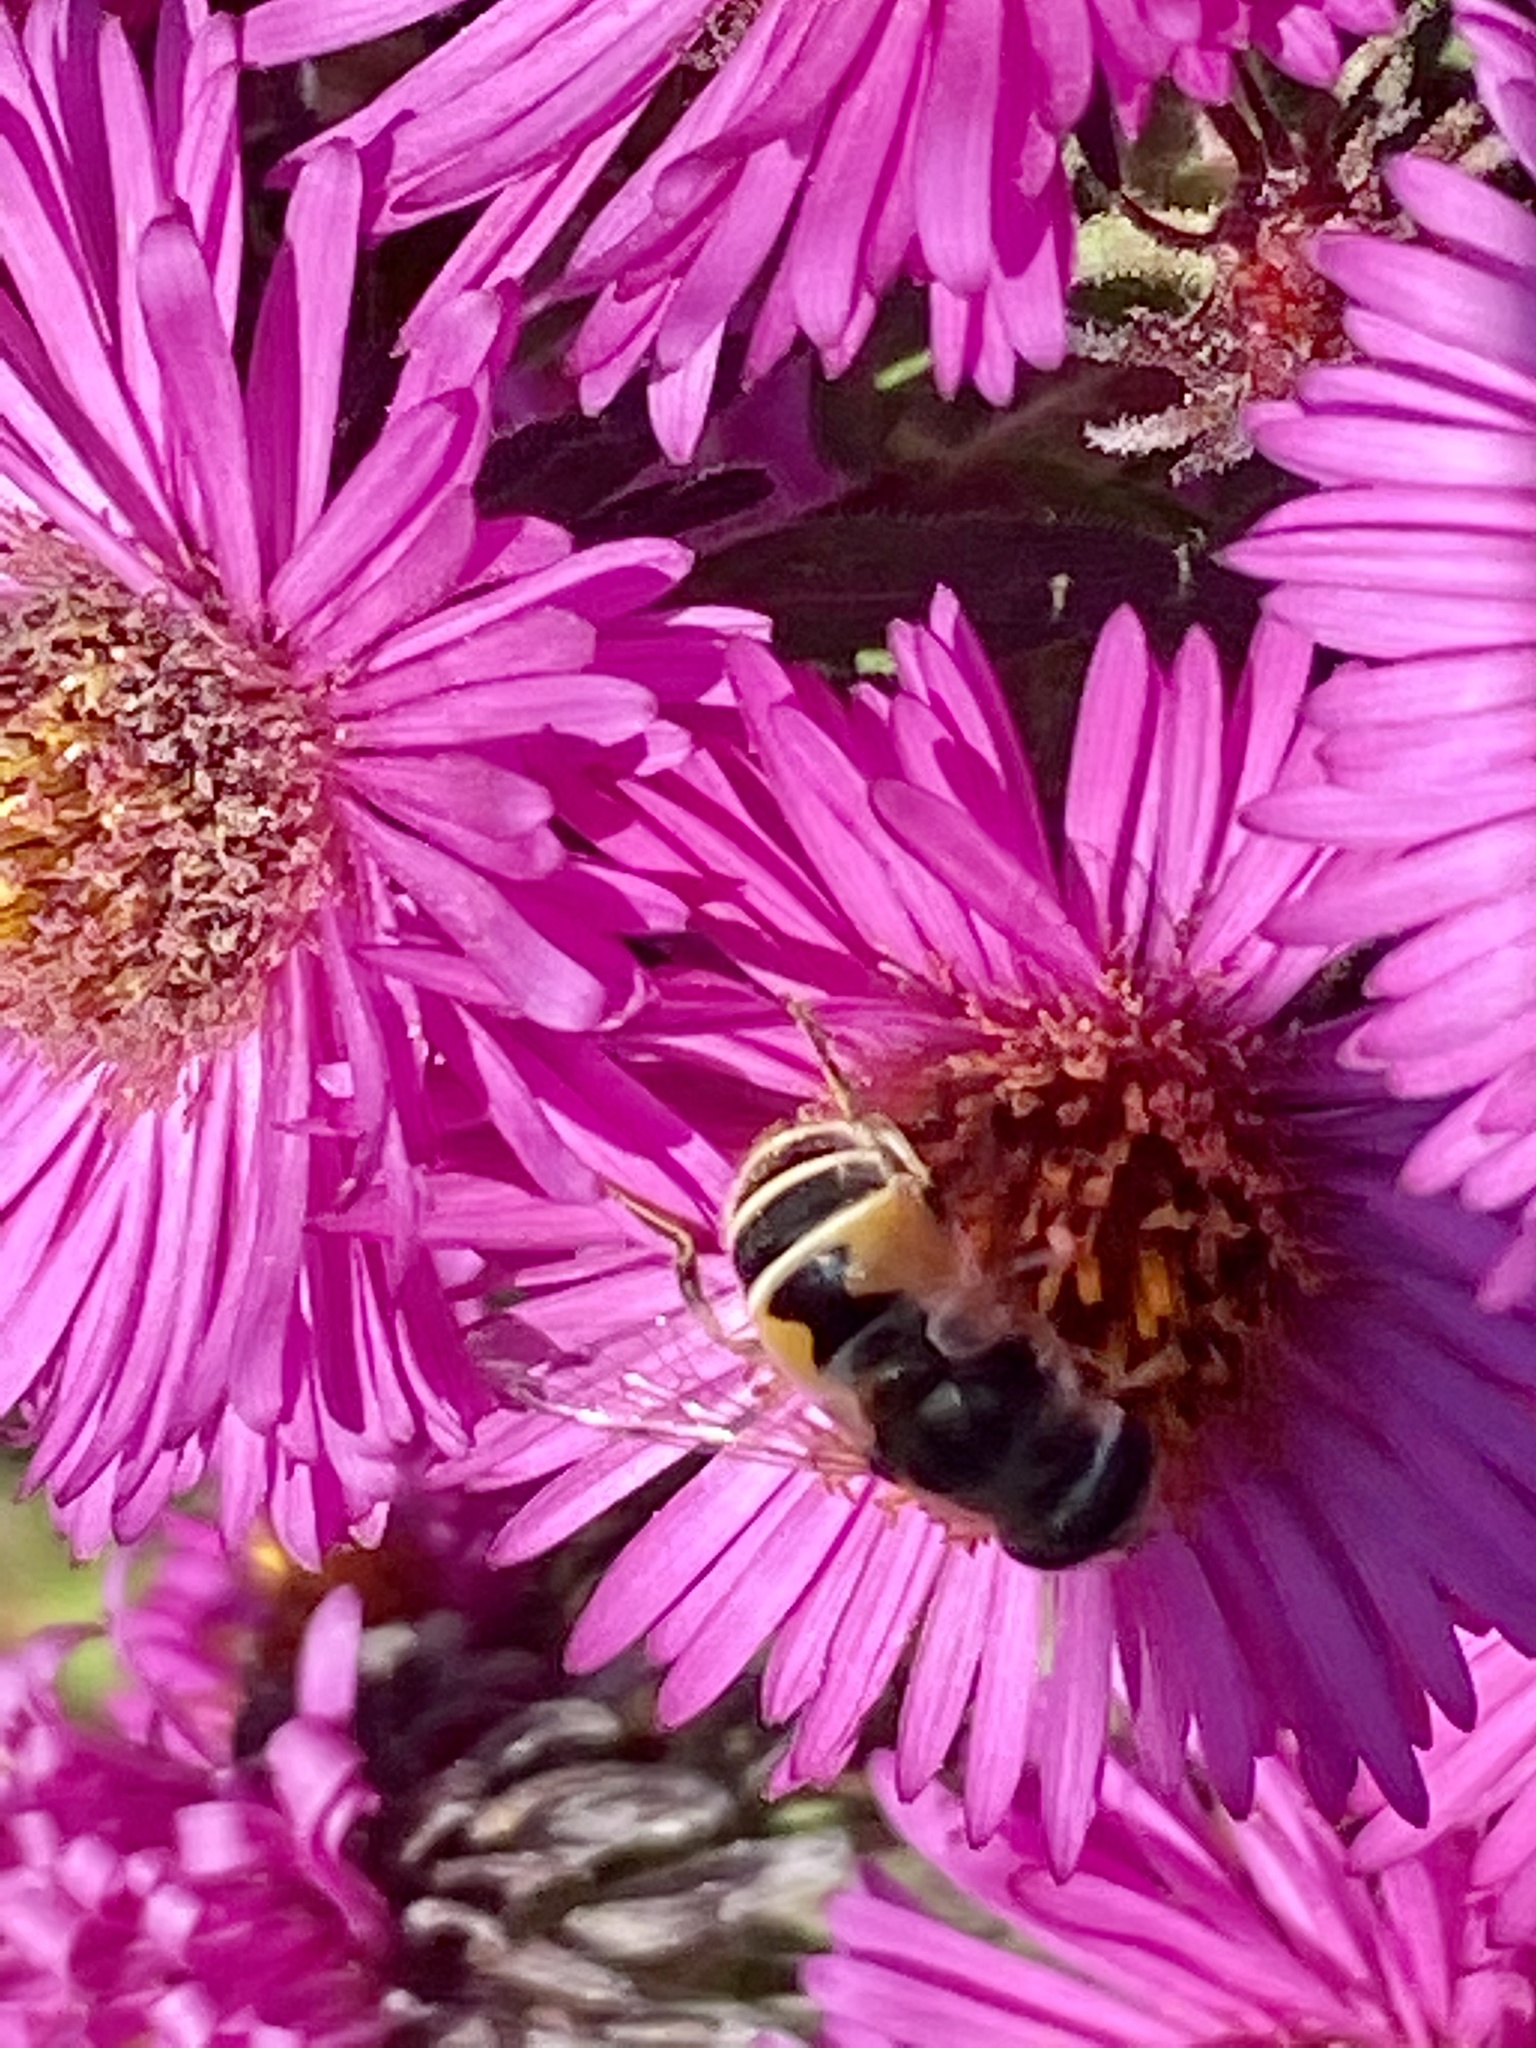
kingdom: Animalia
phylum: Arthropoda
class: Insecta
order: Diptera
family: Syrphidae
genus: Eristalis
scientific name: Eristalis arbustorum
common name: Hover fly
